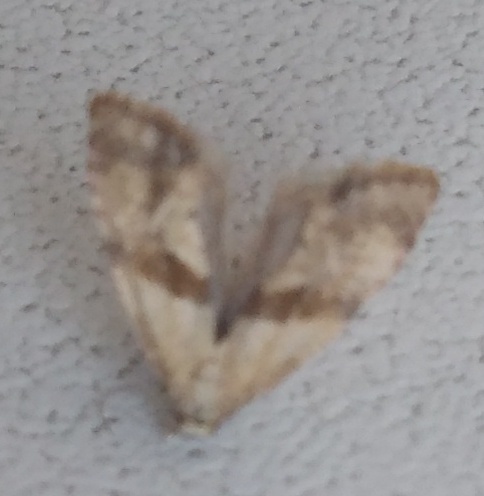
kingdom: Animalia
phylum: Arthropoda
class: Insecta
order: Lepidoptera
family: Tortricidae
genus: Phalonidia
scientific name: Phalonidia contractana
